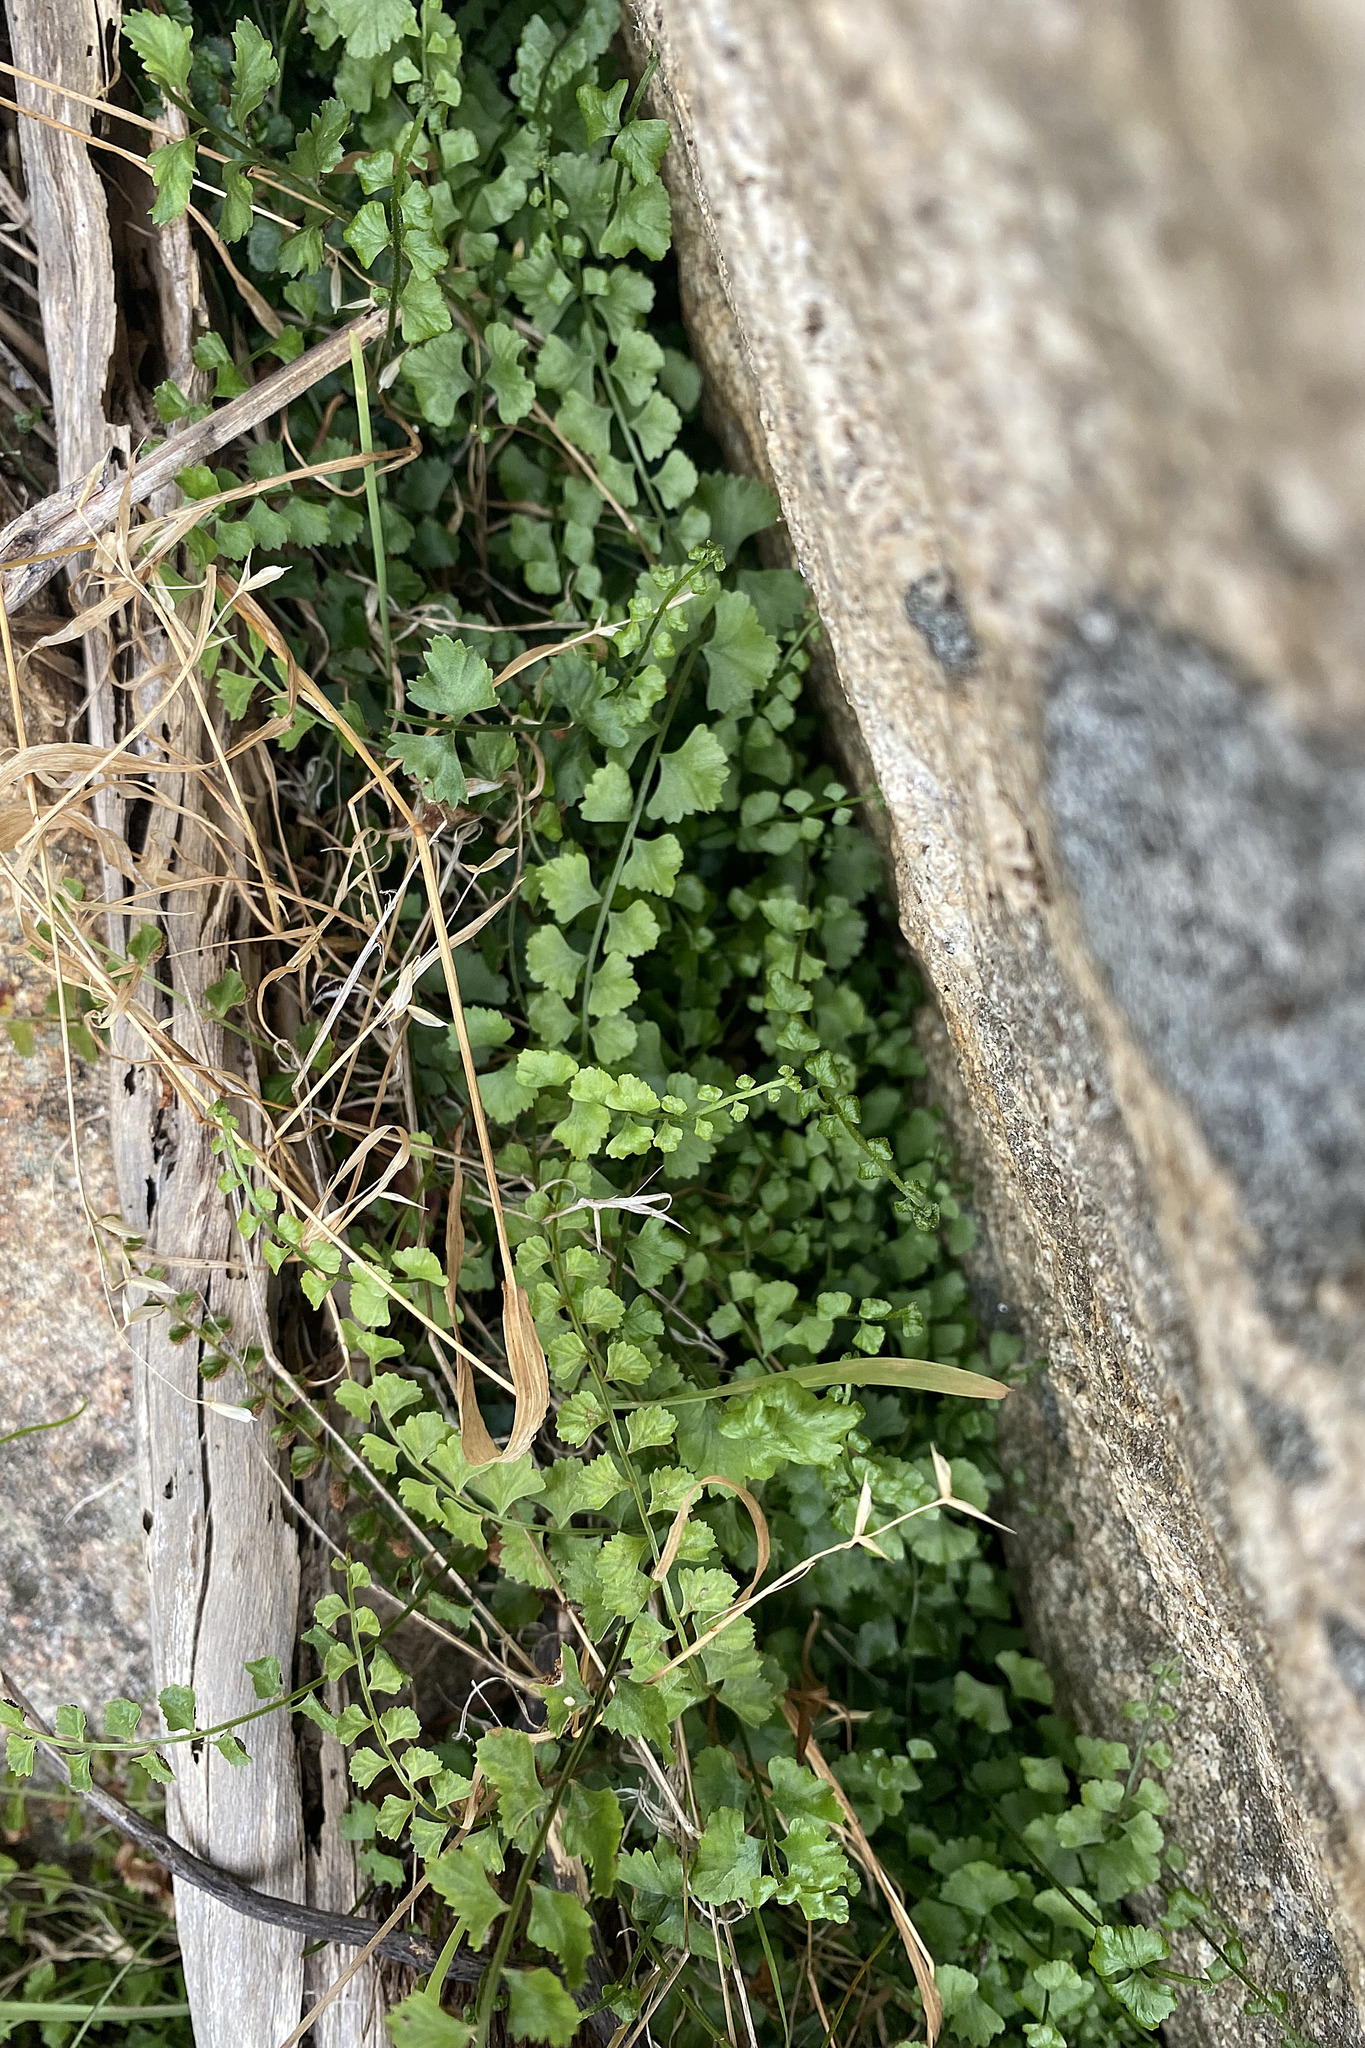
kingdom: Plantae
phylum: Tracheophyta
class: Polypodiopsida
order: Polypodiales
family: Aspleniaceae
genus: Asplenium
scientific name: Asplenium flabellifolium
